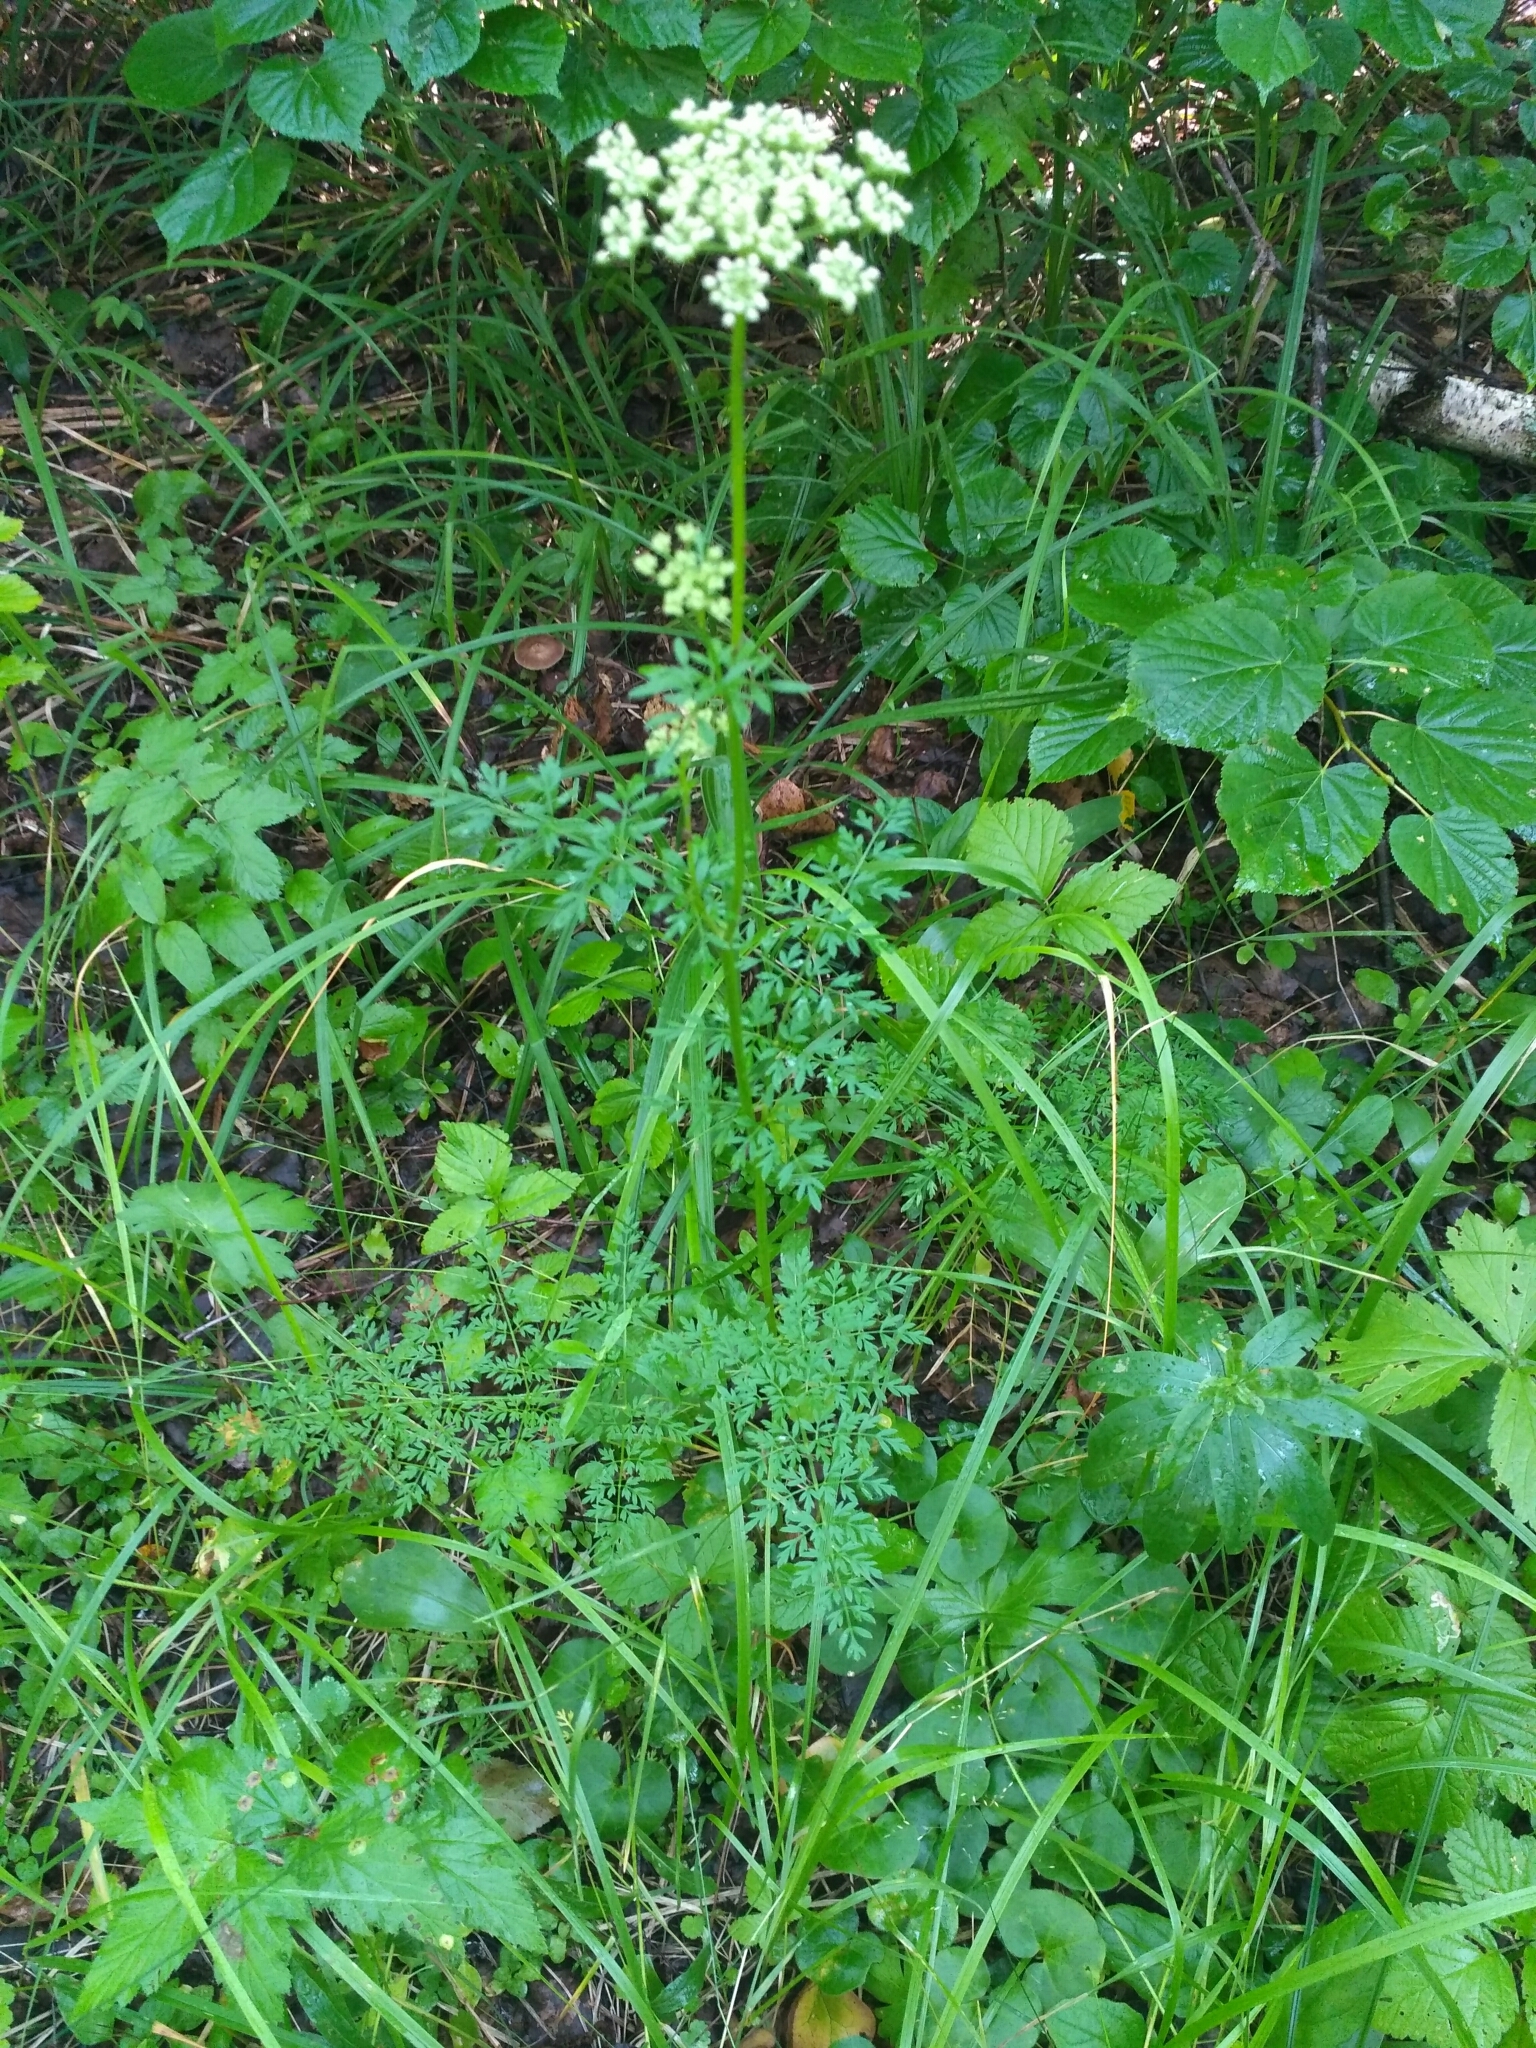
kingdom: Plantae
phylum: Tracheophyta
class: Magnoliopsida
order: Apiales
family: Apiaceae
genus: Selinum
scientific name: Selinum carvifolia
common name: Cambridge milk-parsley
